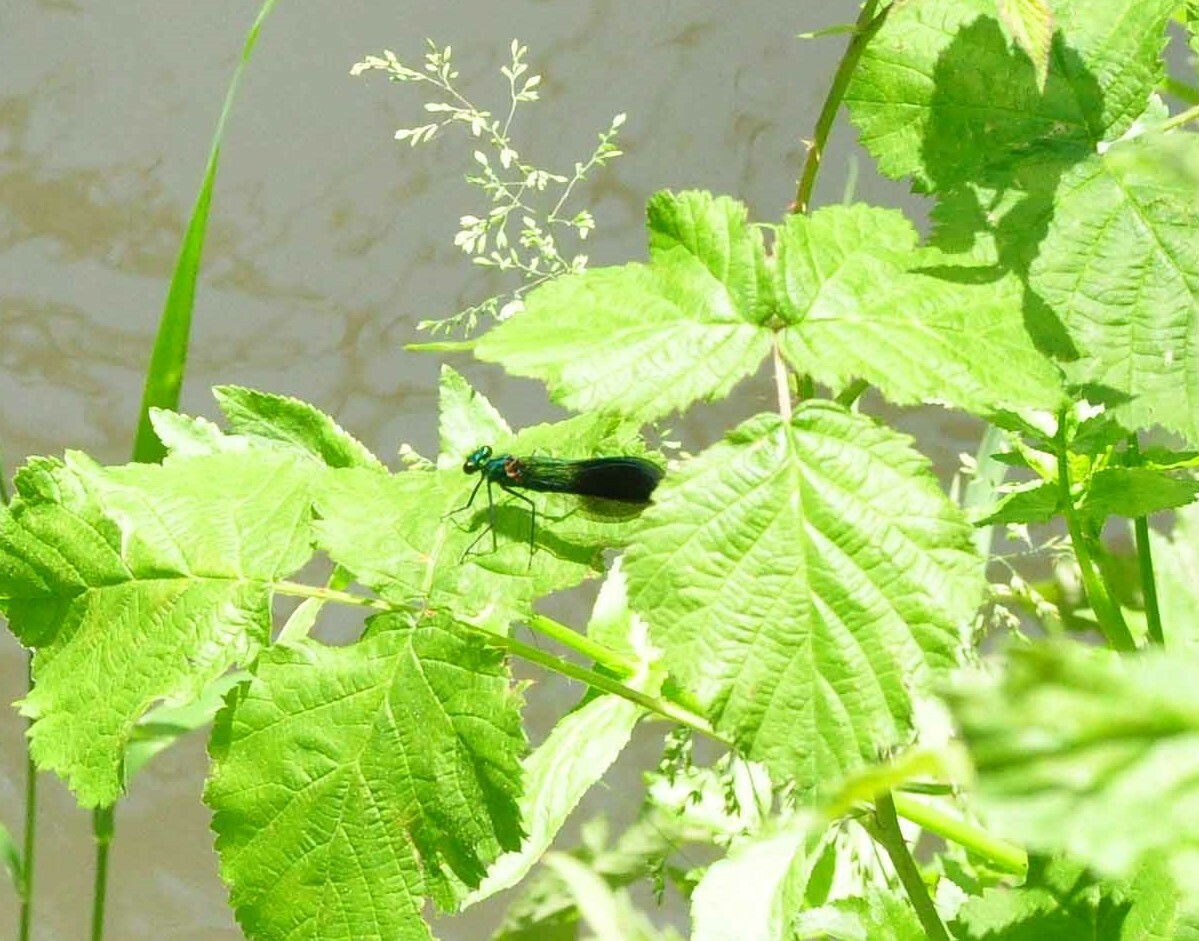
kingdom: Animalia
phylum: Arthropoda
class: Insecta
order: Odonata
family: Calopterygidae
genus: Calopteryx
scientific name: Calopteryx xanthostoma
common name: Western demoiselle
